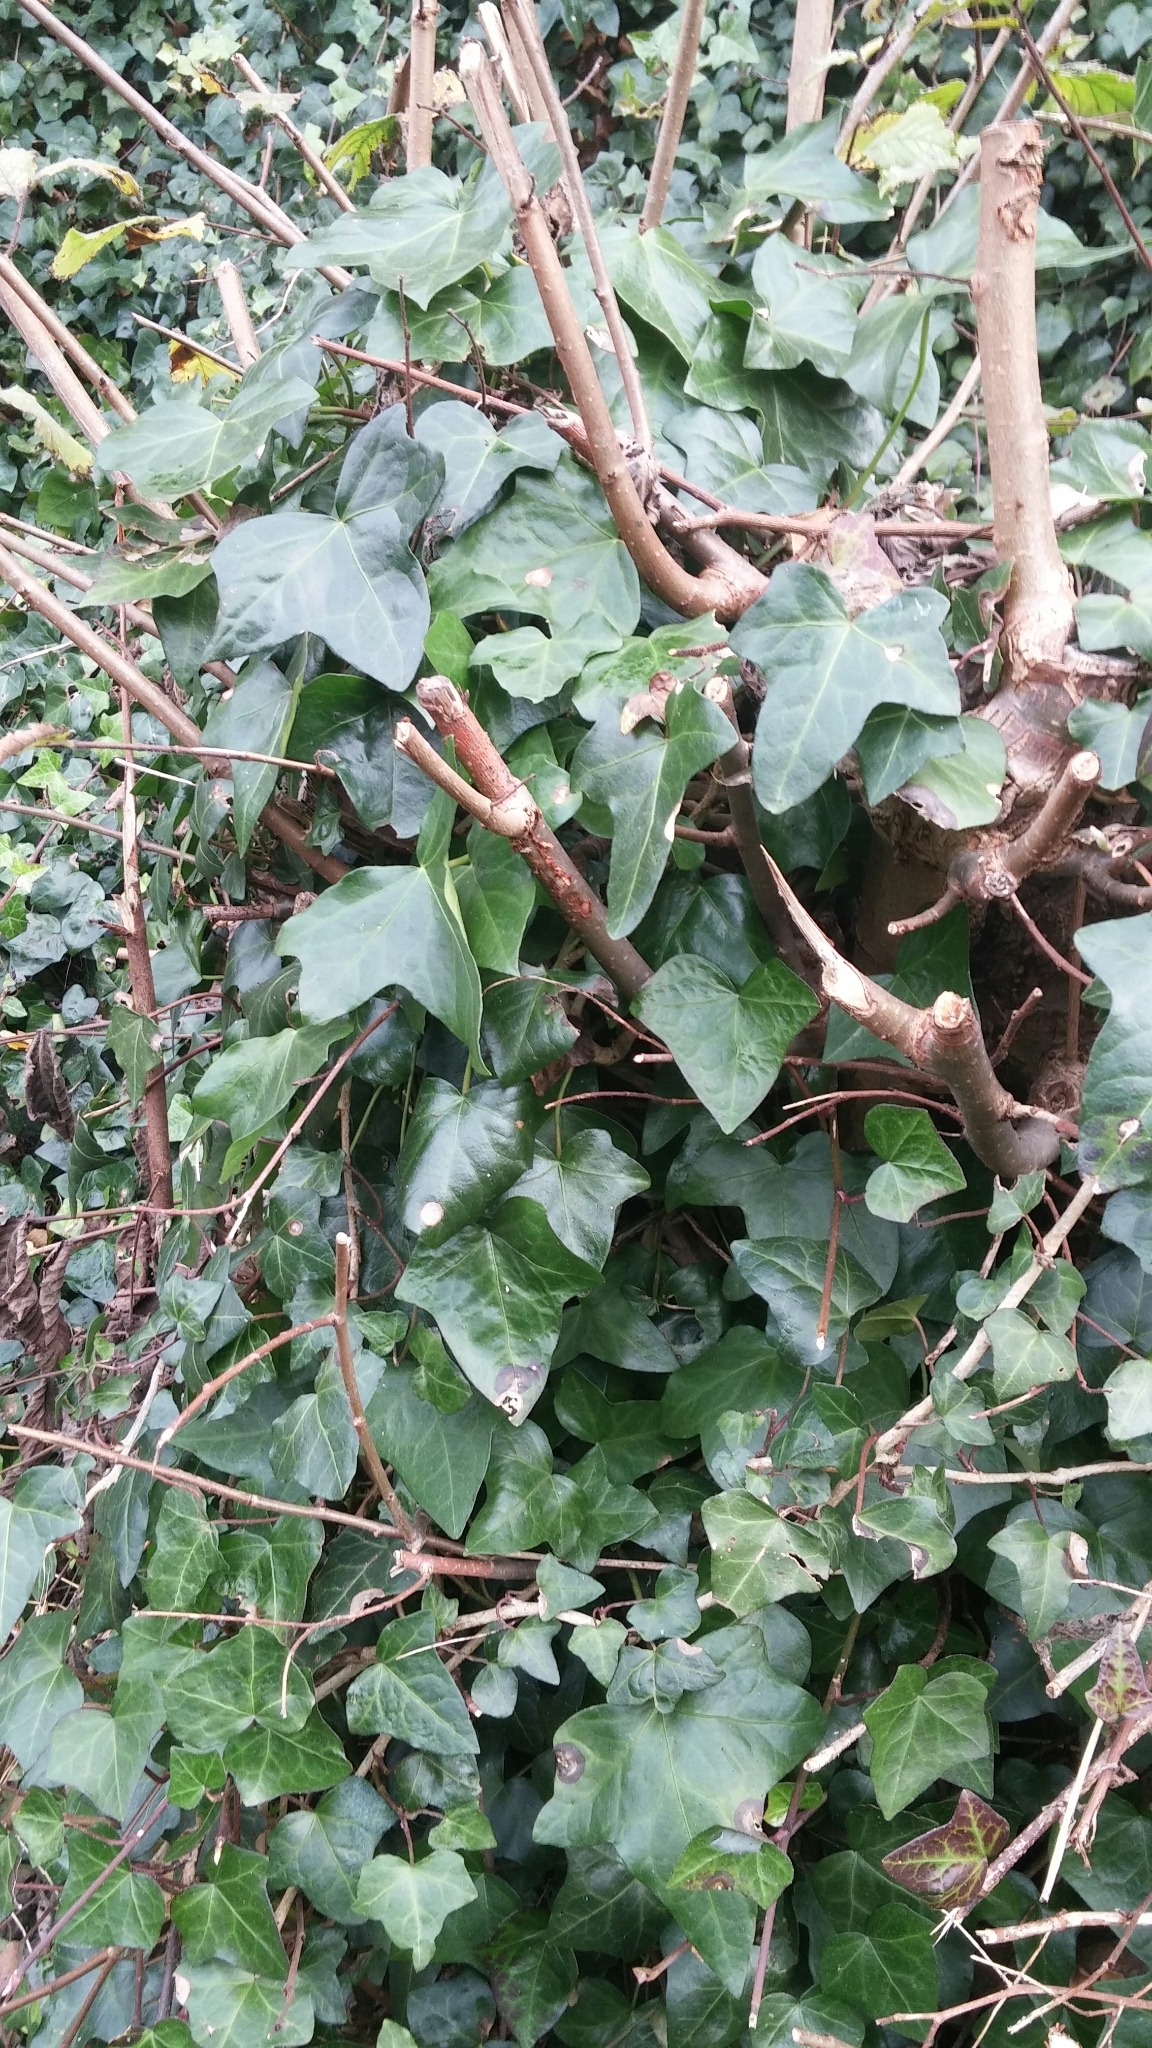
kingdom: Plantae
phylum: Tracheophyta
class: Magnoliopsida
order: Apiales
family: Araliaceae
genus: Hedera
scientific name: Hedera helix
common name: Ivy
